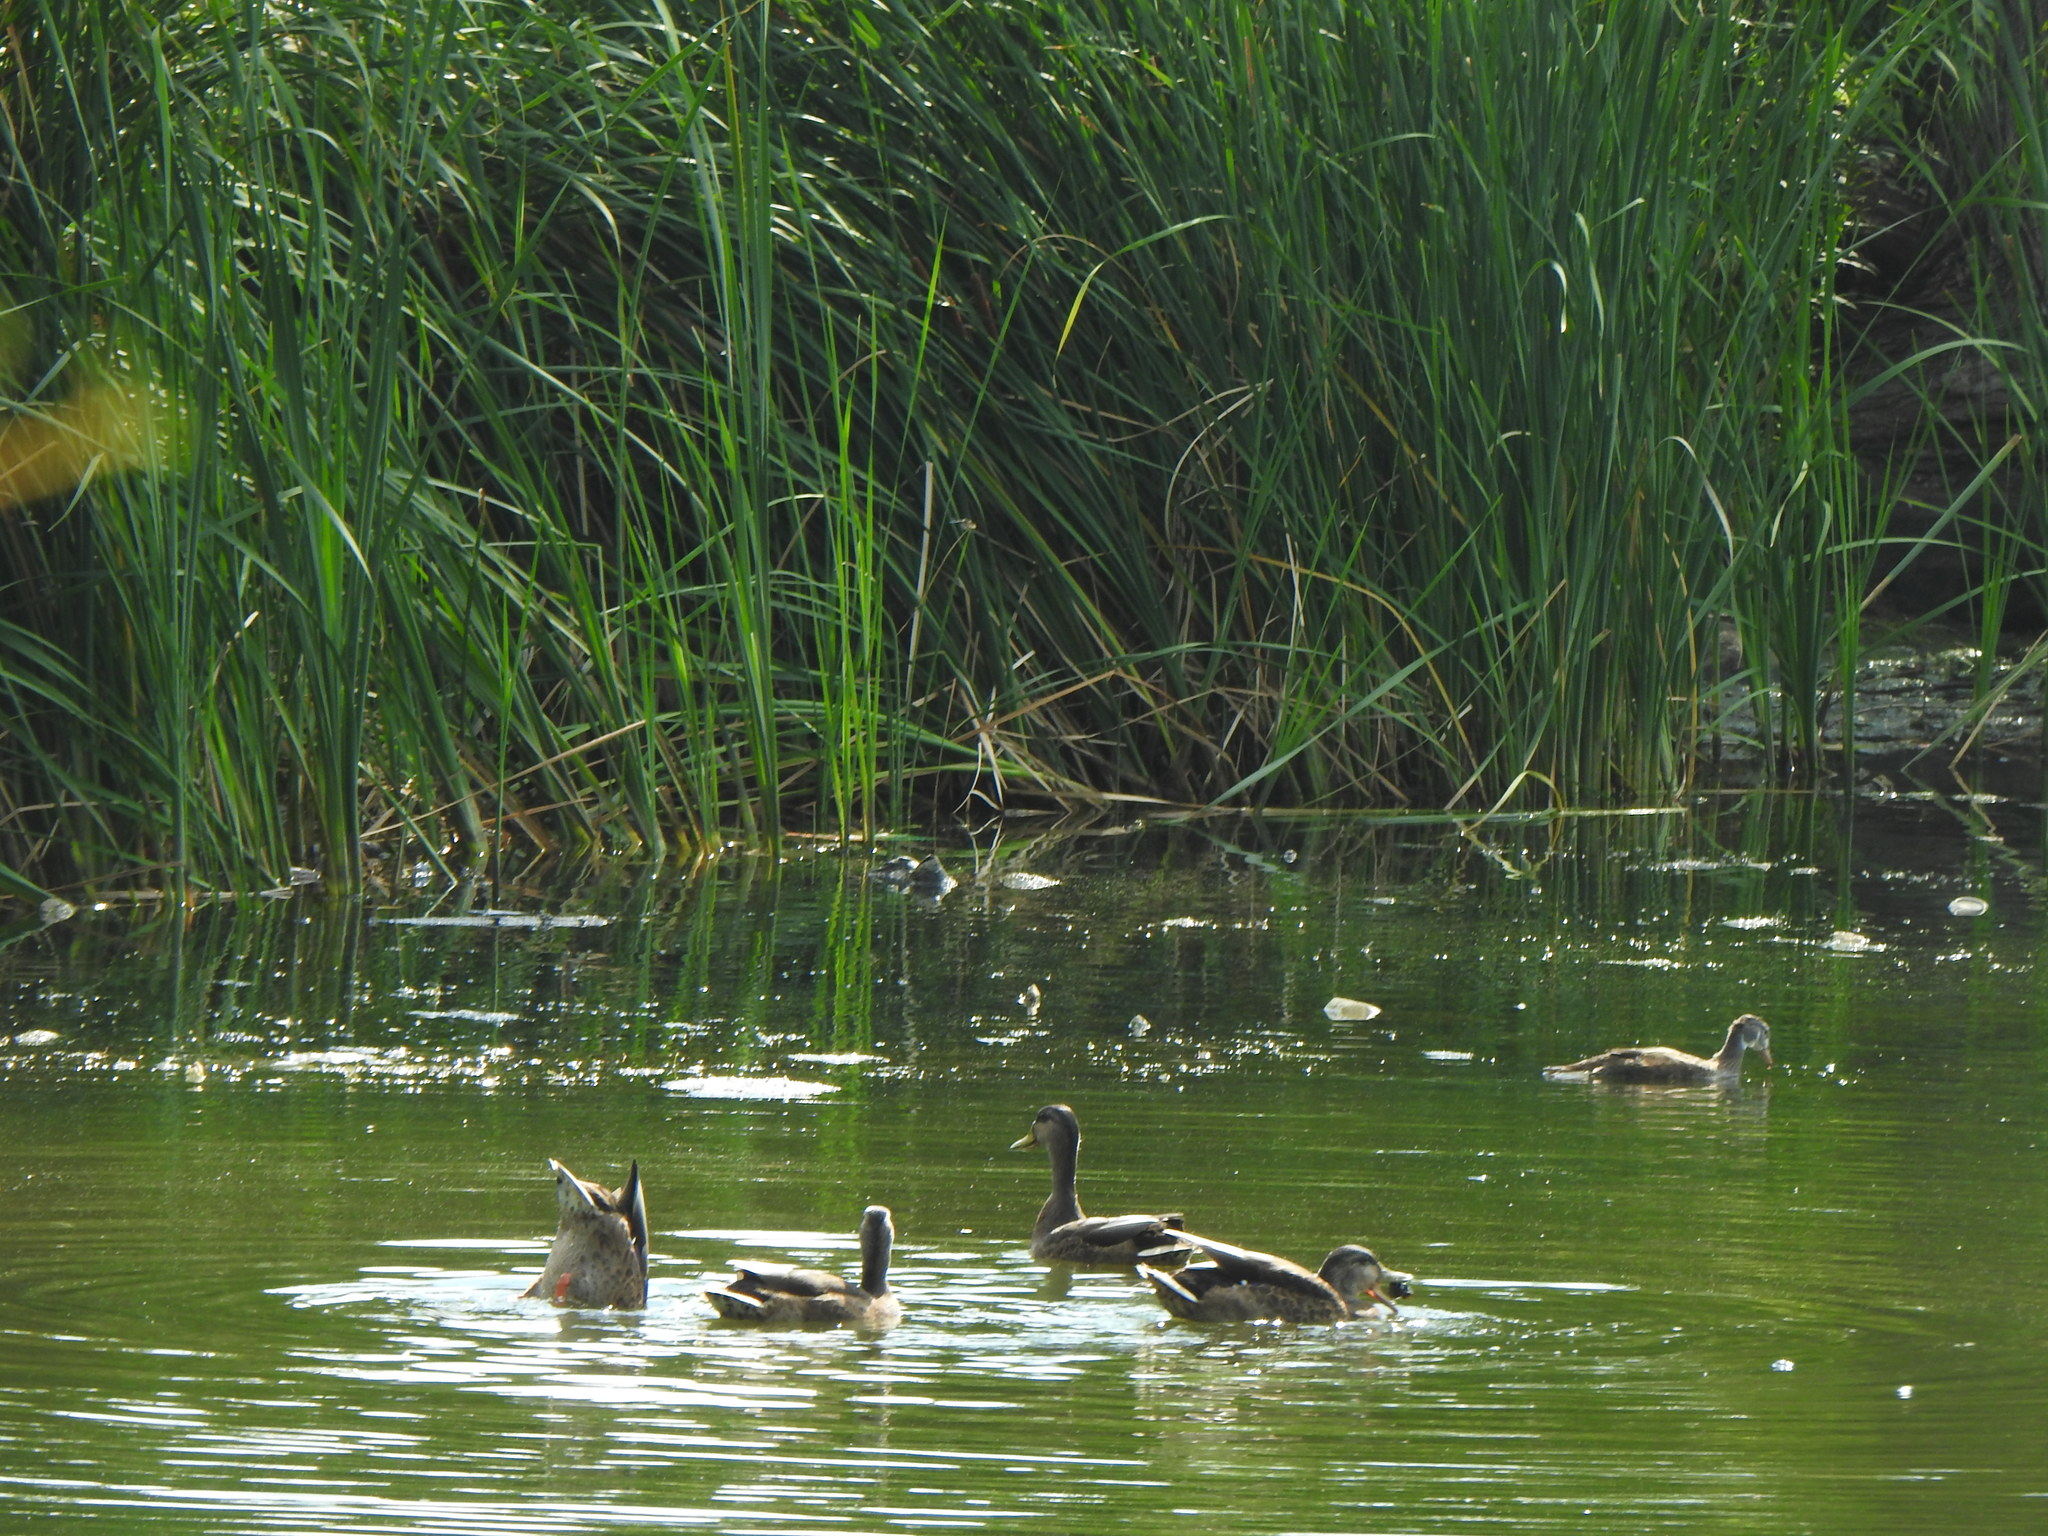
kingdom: Animalia
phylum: Chordata
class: Aves
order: Anseriformes
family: Anatidae
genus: Anas
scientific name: Anas platyrhynchos
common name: Mallard
